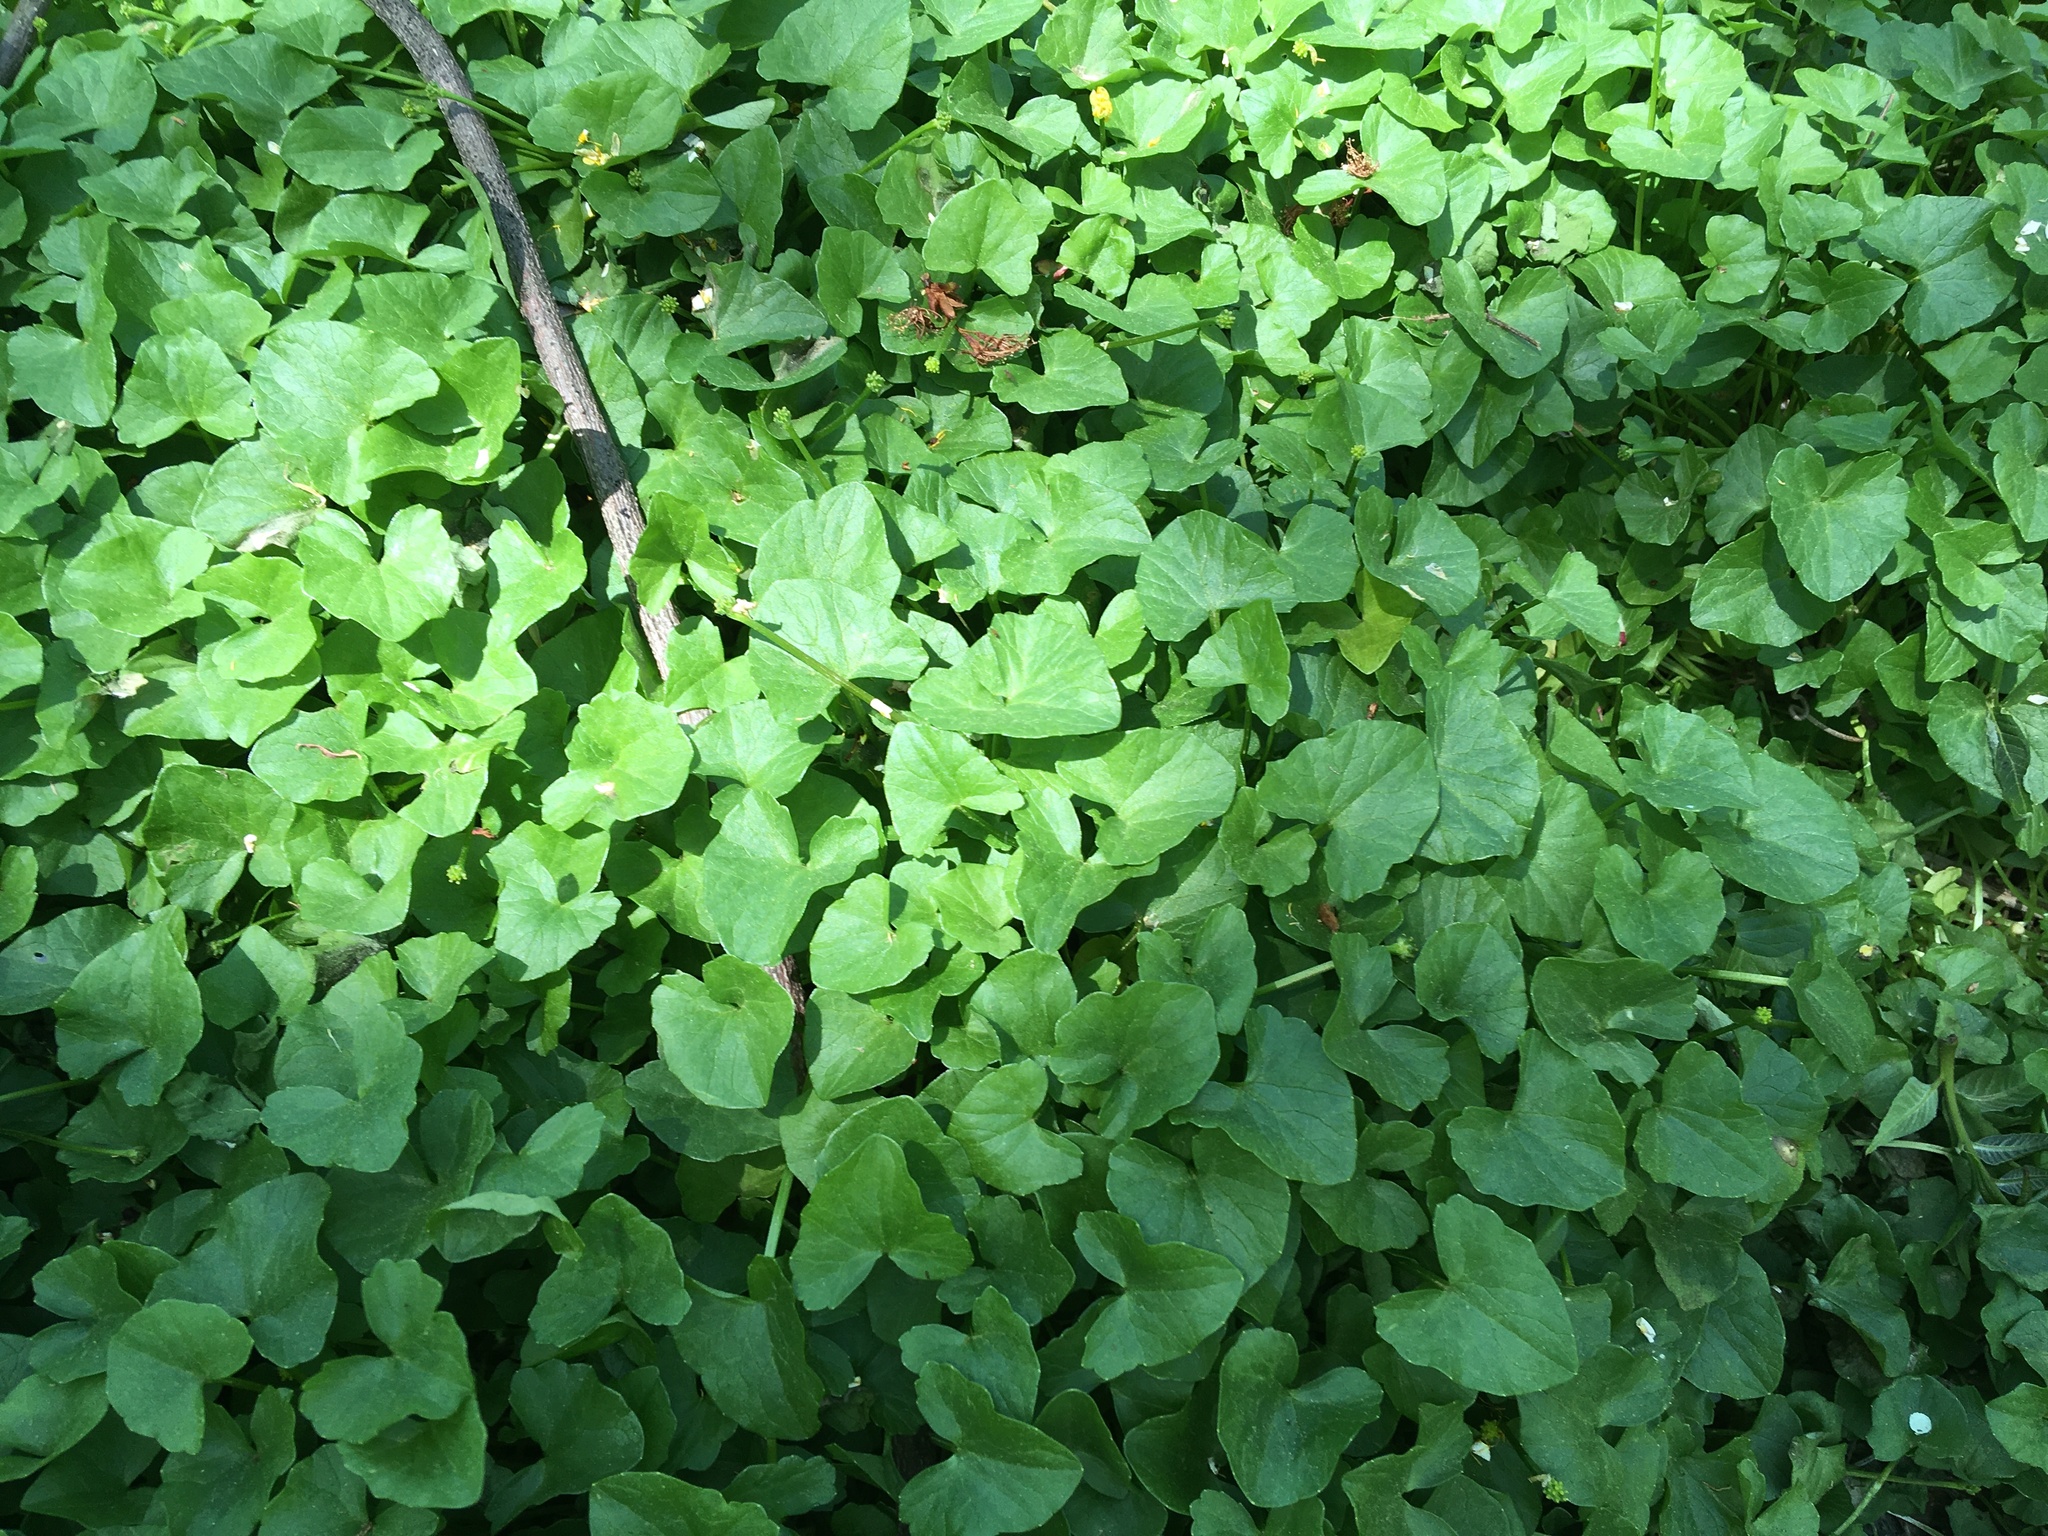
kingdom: Plantae
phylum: Tracheophyta
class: Magnoliopsida
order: Ranunculales
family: Ranunculaceae
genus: Ficaria
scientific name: Ficaria verna
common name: Lesser celandine
